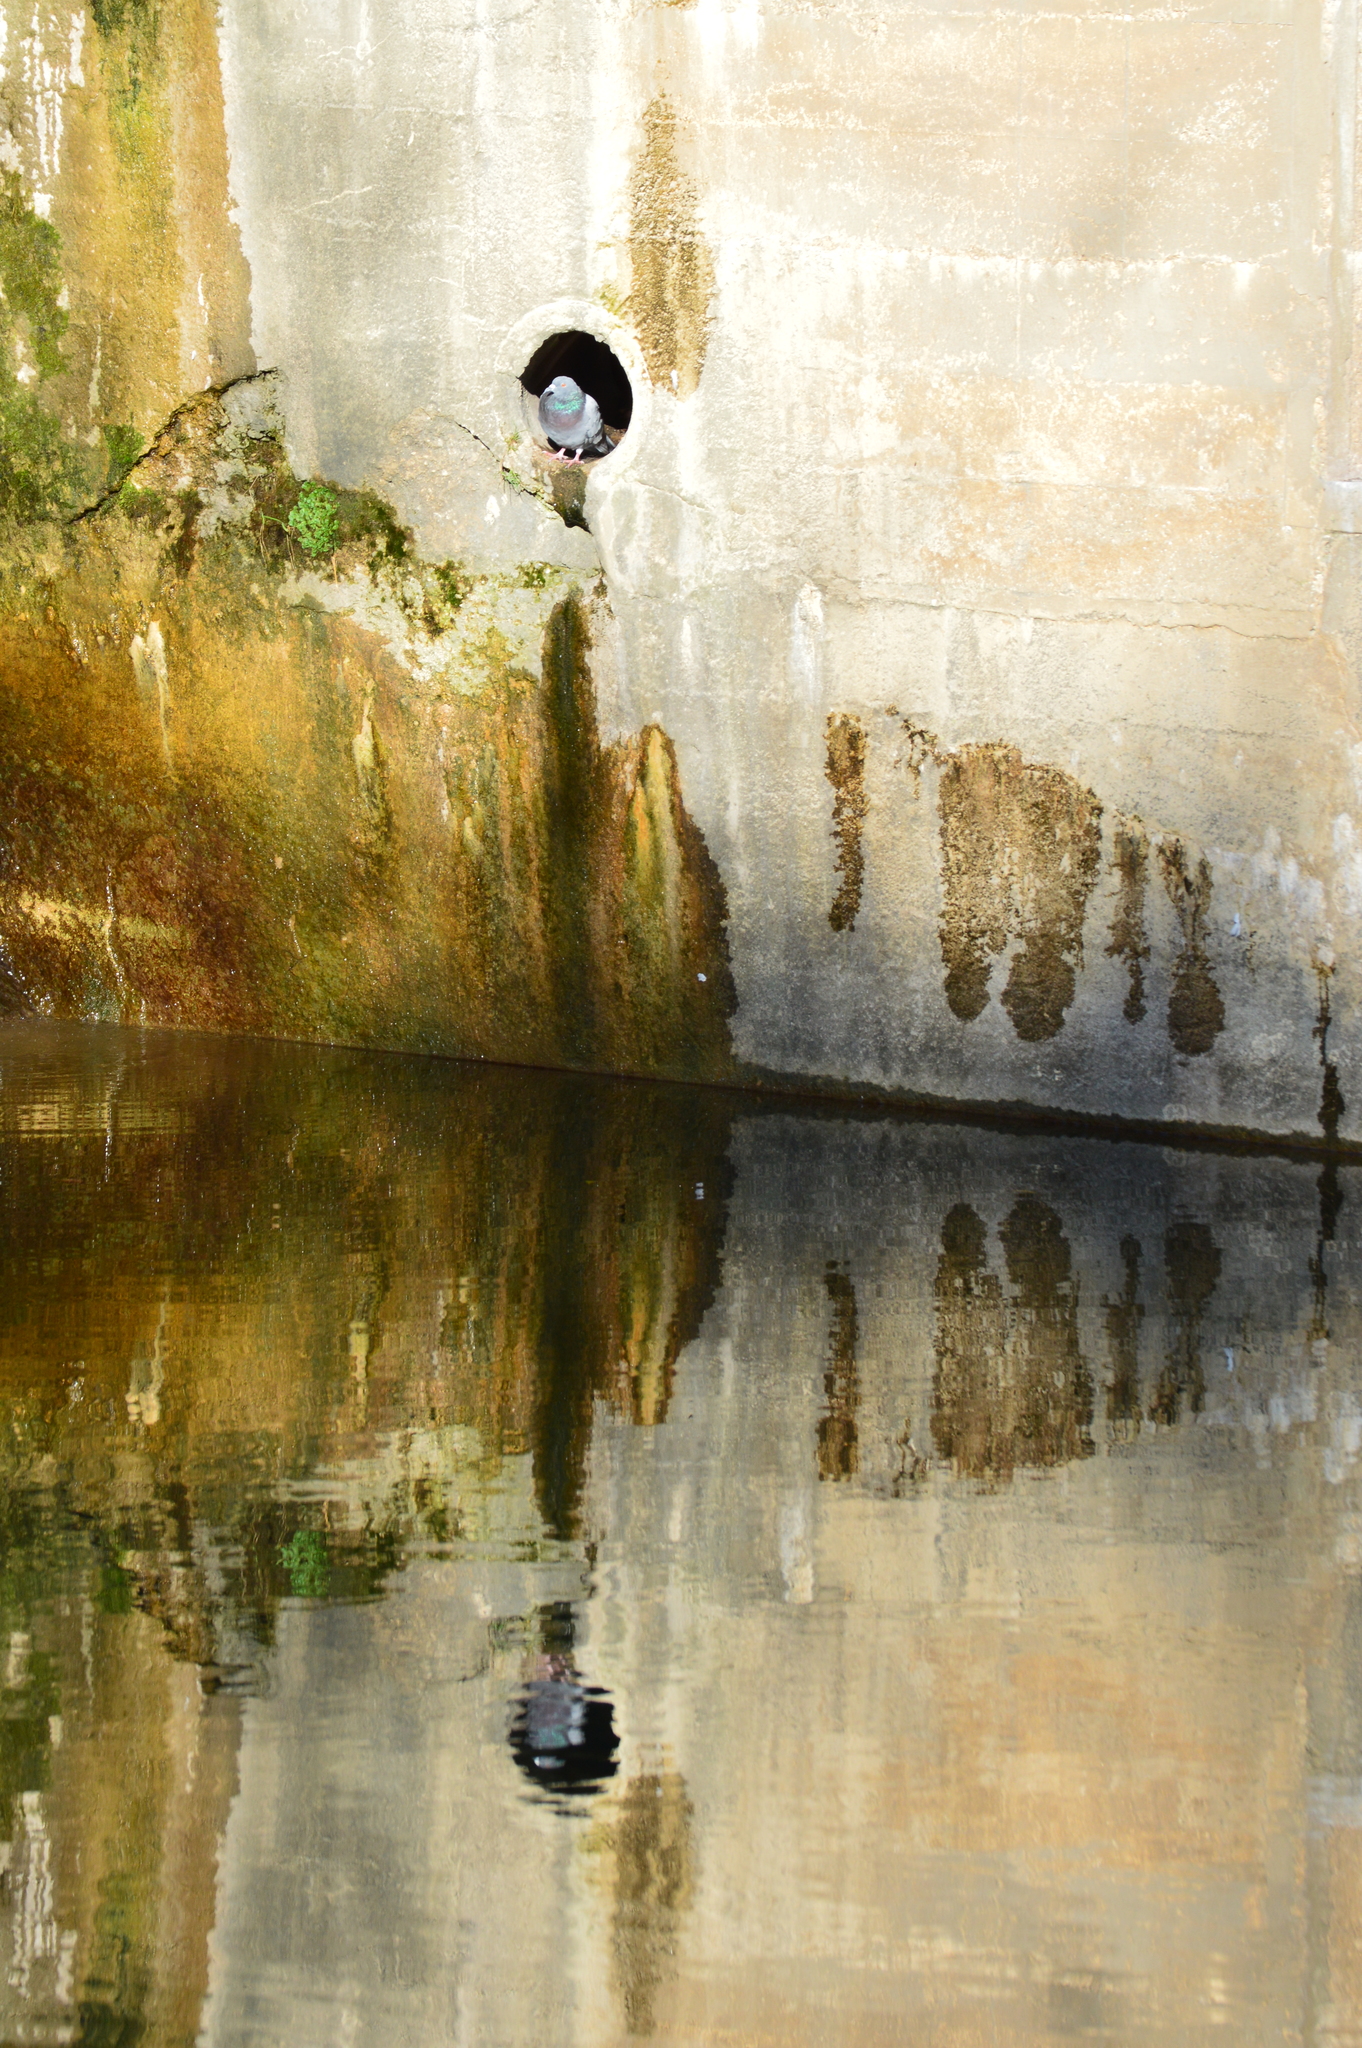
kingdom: Animalia
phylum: Chordata
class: Aves
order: Columbiformes
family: Columbidae
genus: Columba
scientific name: Columba livia
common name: Rock pigeon
